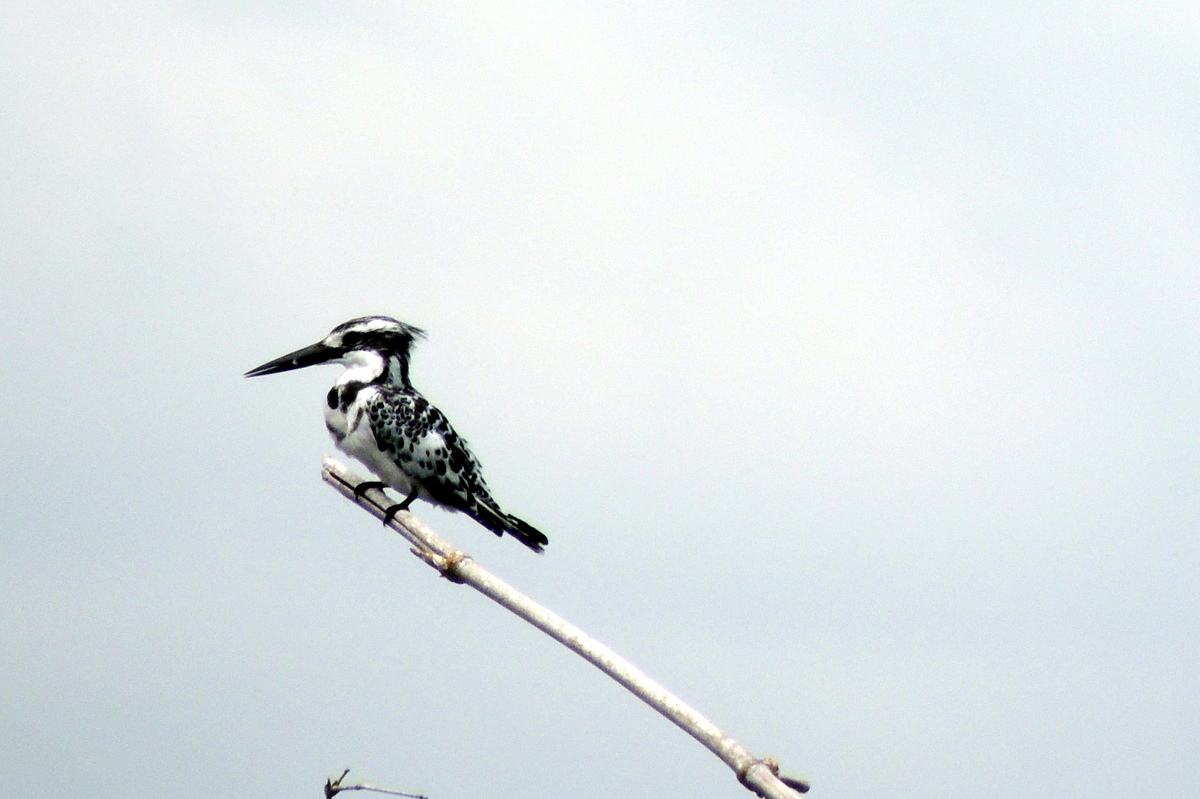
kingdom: Animalia
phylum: Chordata
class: Aves
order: Coraciiformes
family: Alcedinidae
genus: Ceryle
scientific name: Ceryle rudis
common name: Pied kingfisher
